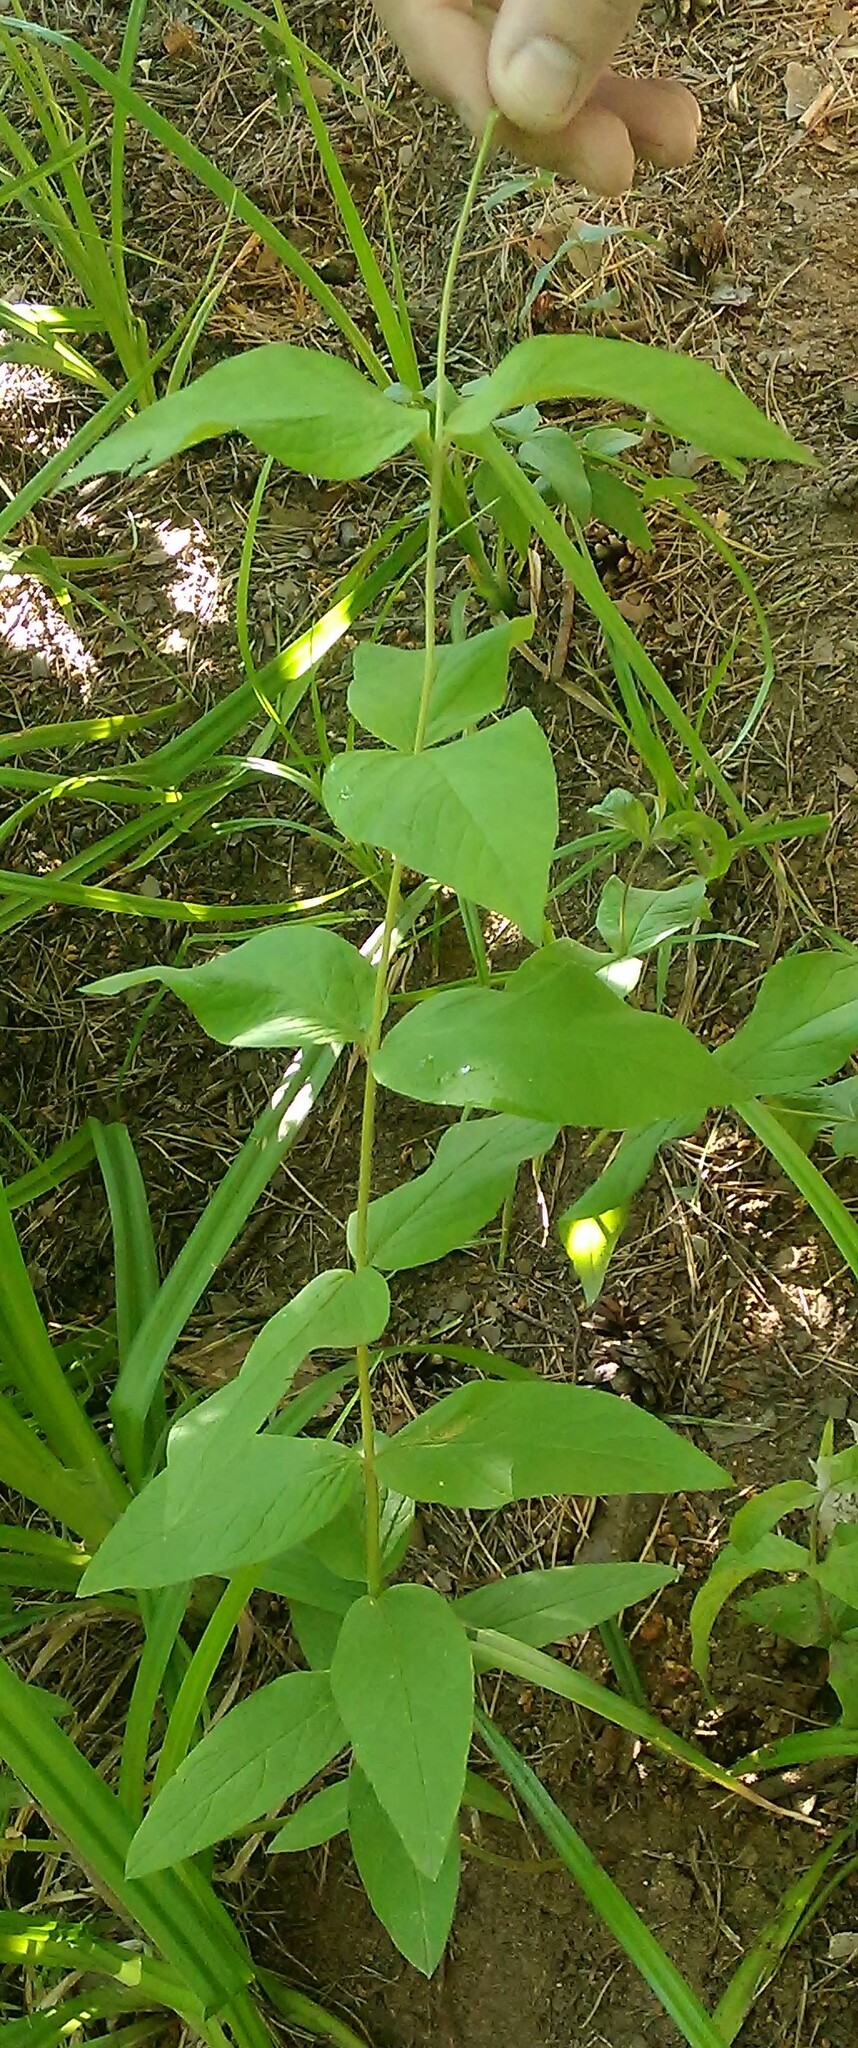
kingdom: Plantae
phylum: Tracheophyta
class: Magnoliopsida
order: Ericales
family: Primulaceae
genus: Lysimachia
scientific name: Lysimachia vulgaris
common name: Yellow loosestrife
